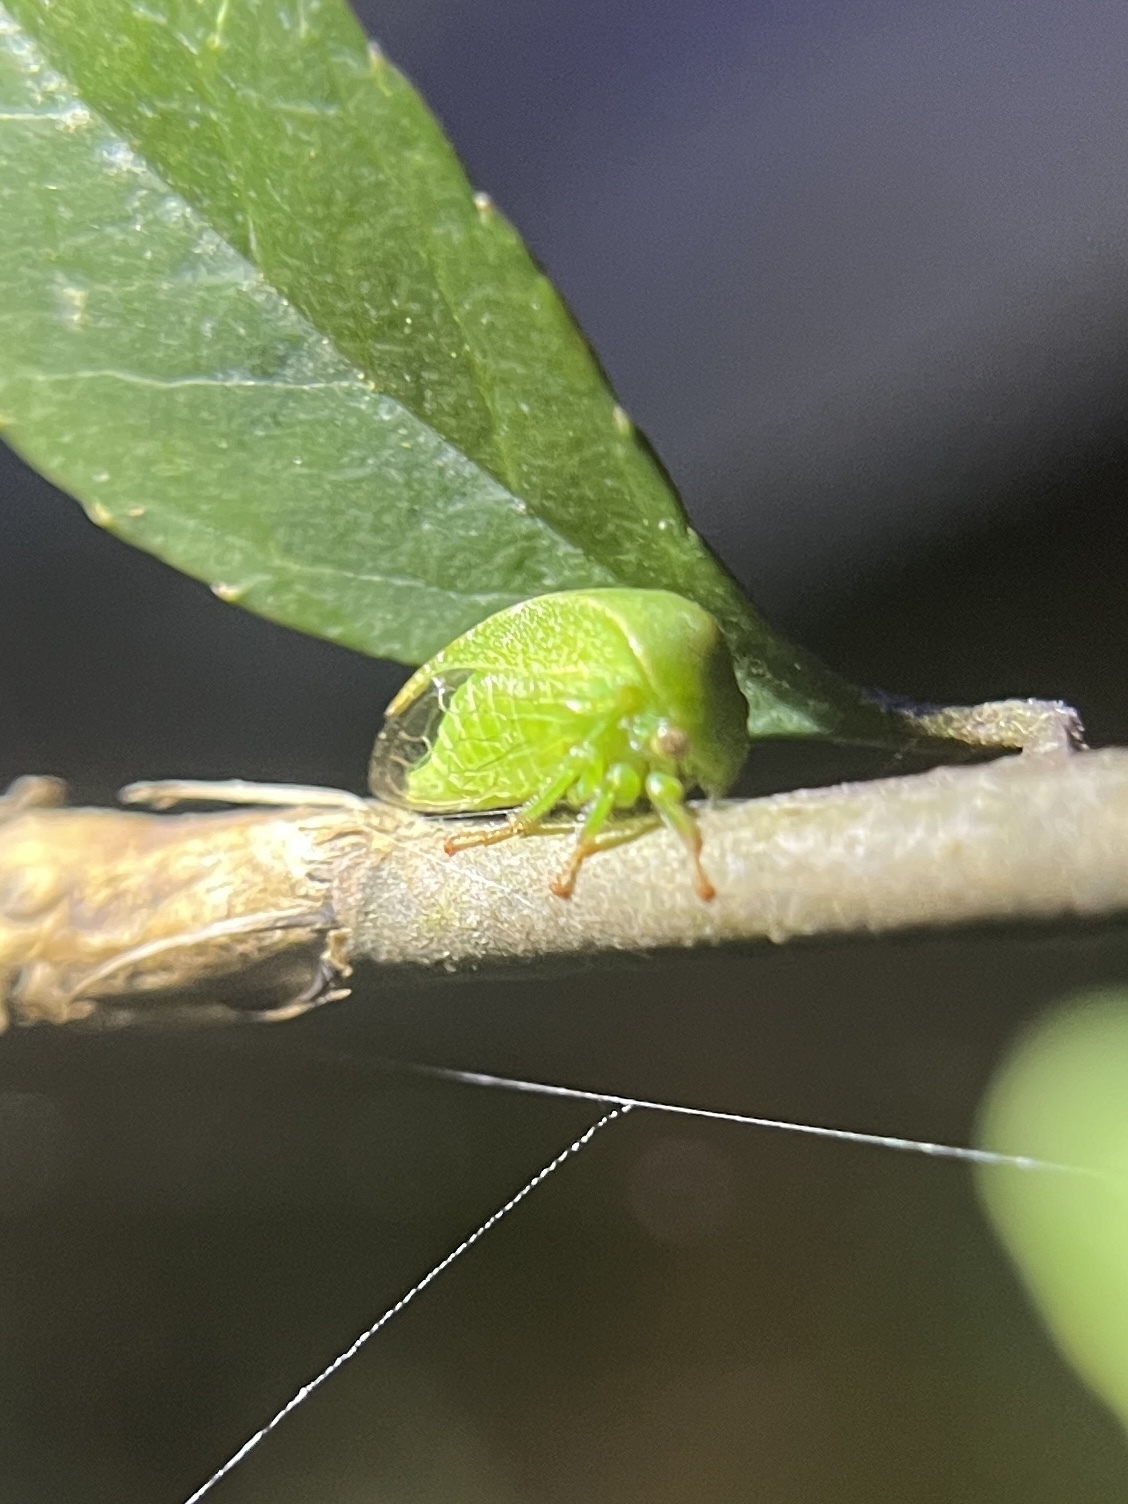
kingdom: Animalia
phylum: Arthropoda
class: Insecta
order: Hemiptera
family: Membracidae
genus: Spissistilus
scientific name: Spissistilus festina
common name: Membracid bug
